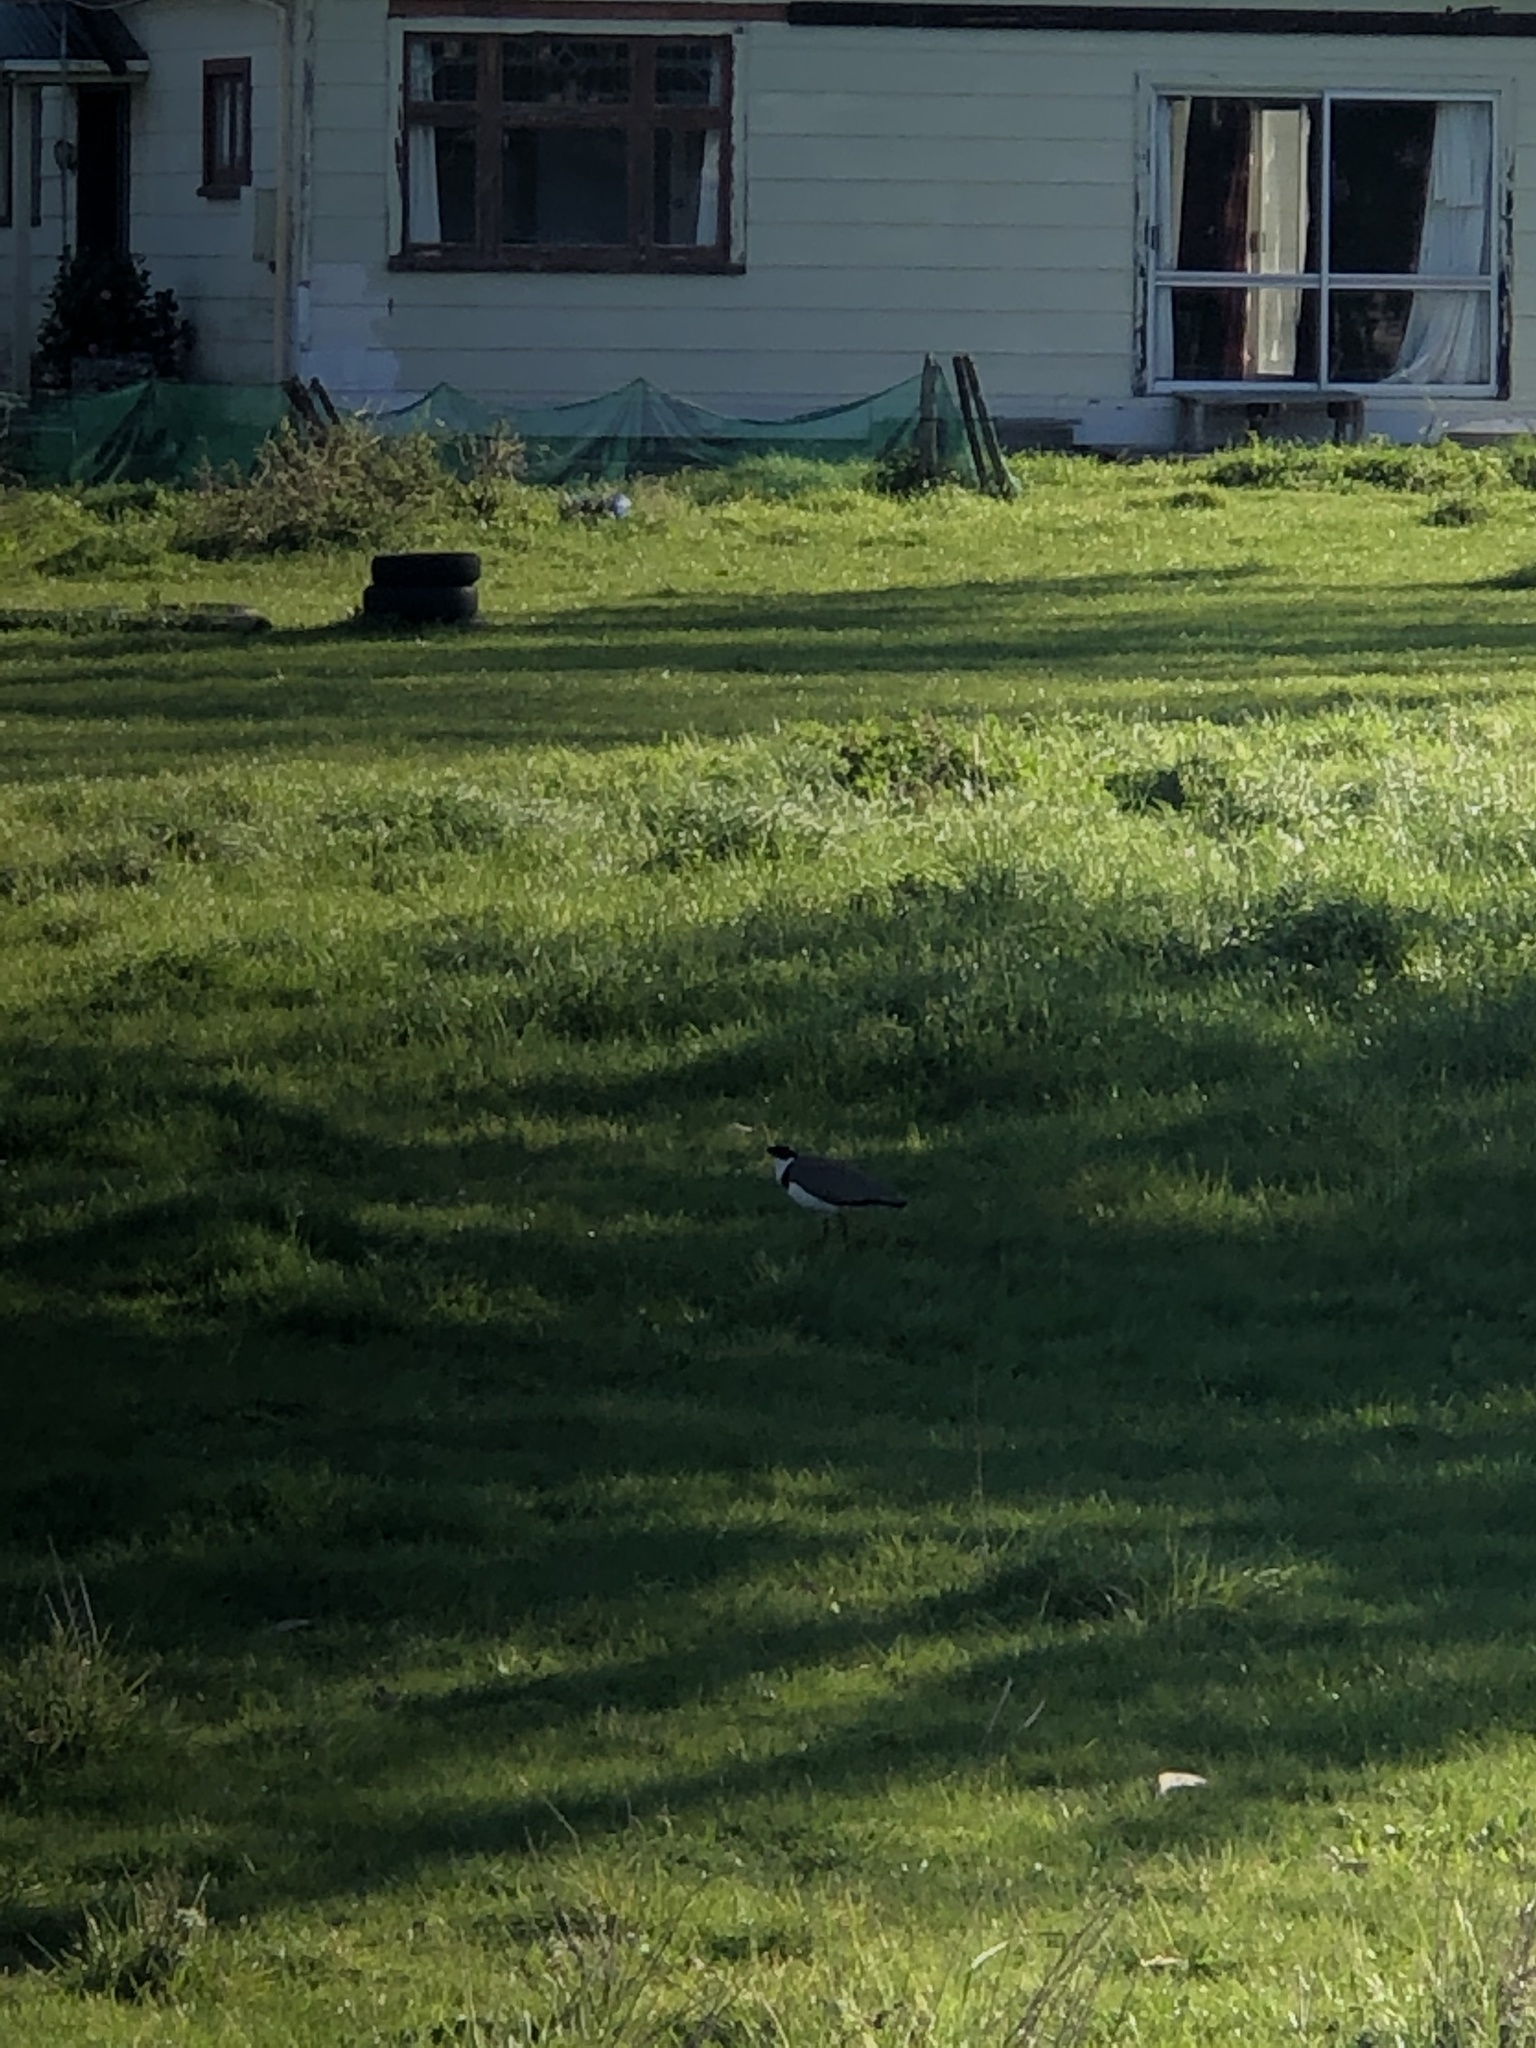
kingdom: Animalia
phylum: Chordata
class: Aves
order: Charadriiformes
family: Charadriidae
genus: Vanellus
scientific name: Vanellus miles
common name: Masked lapwing
